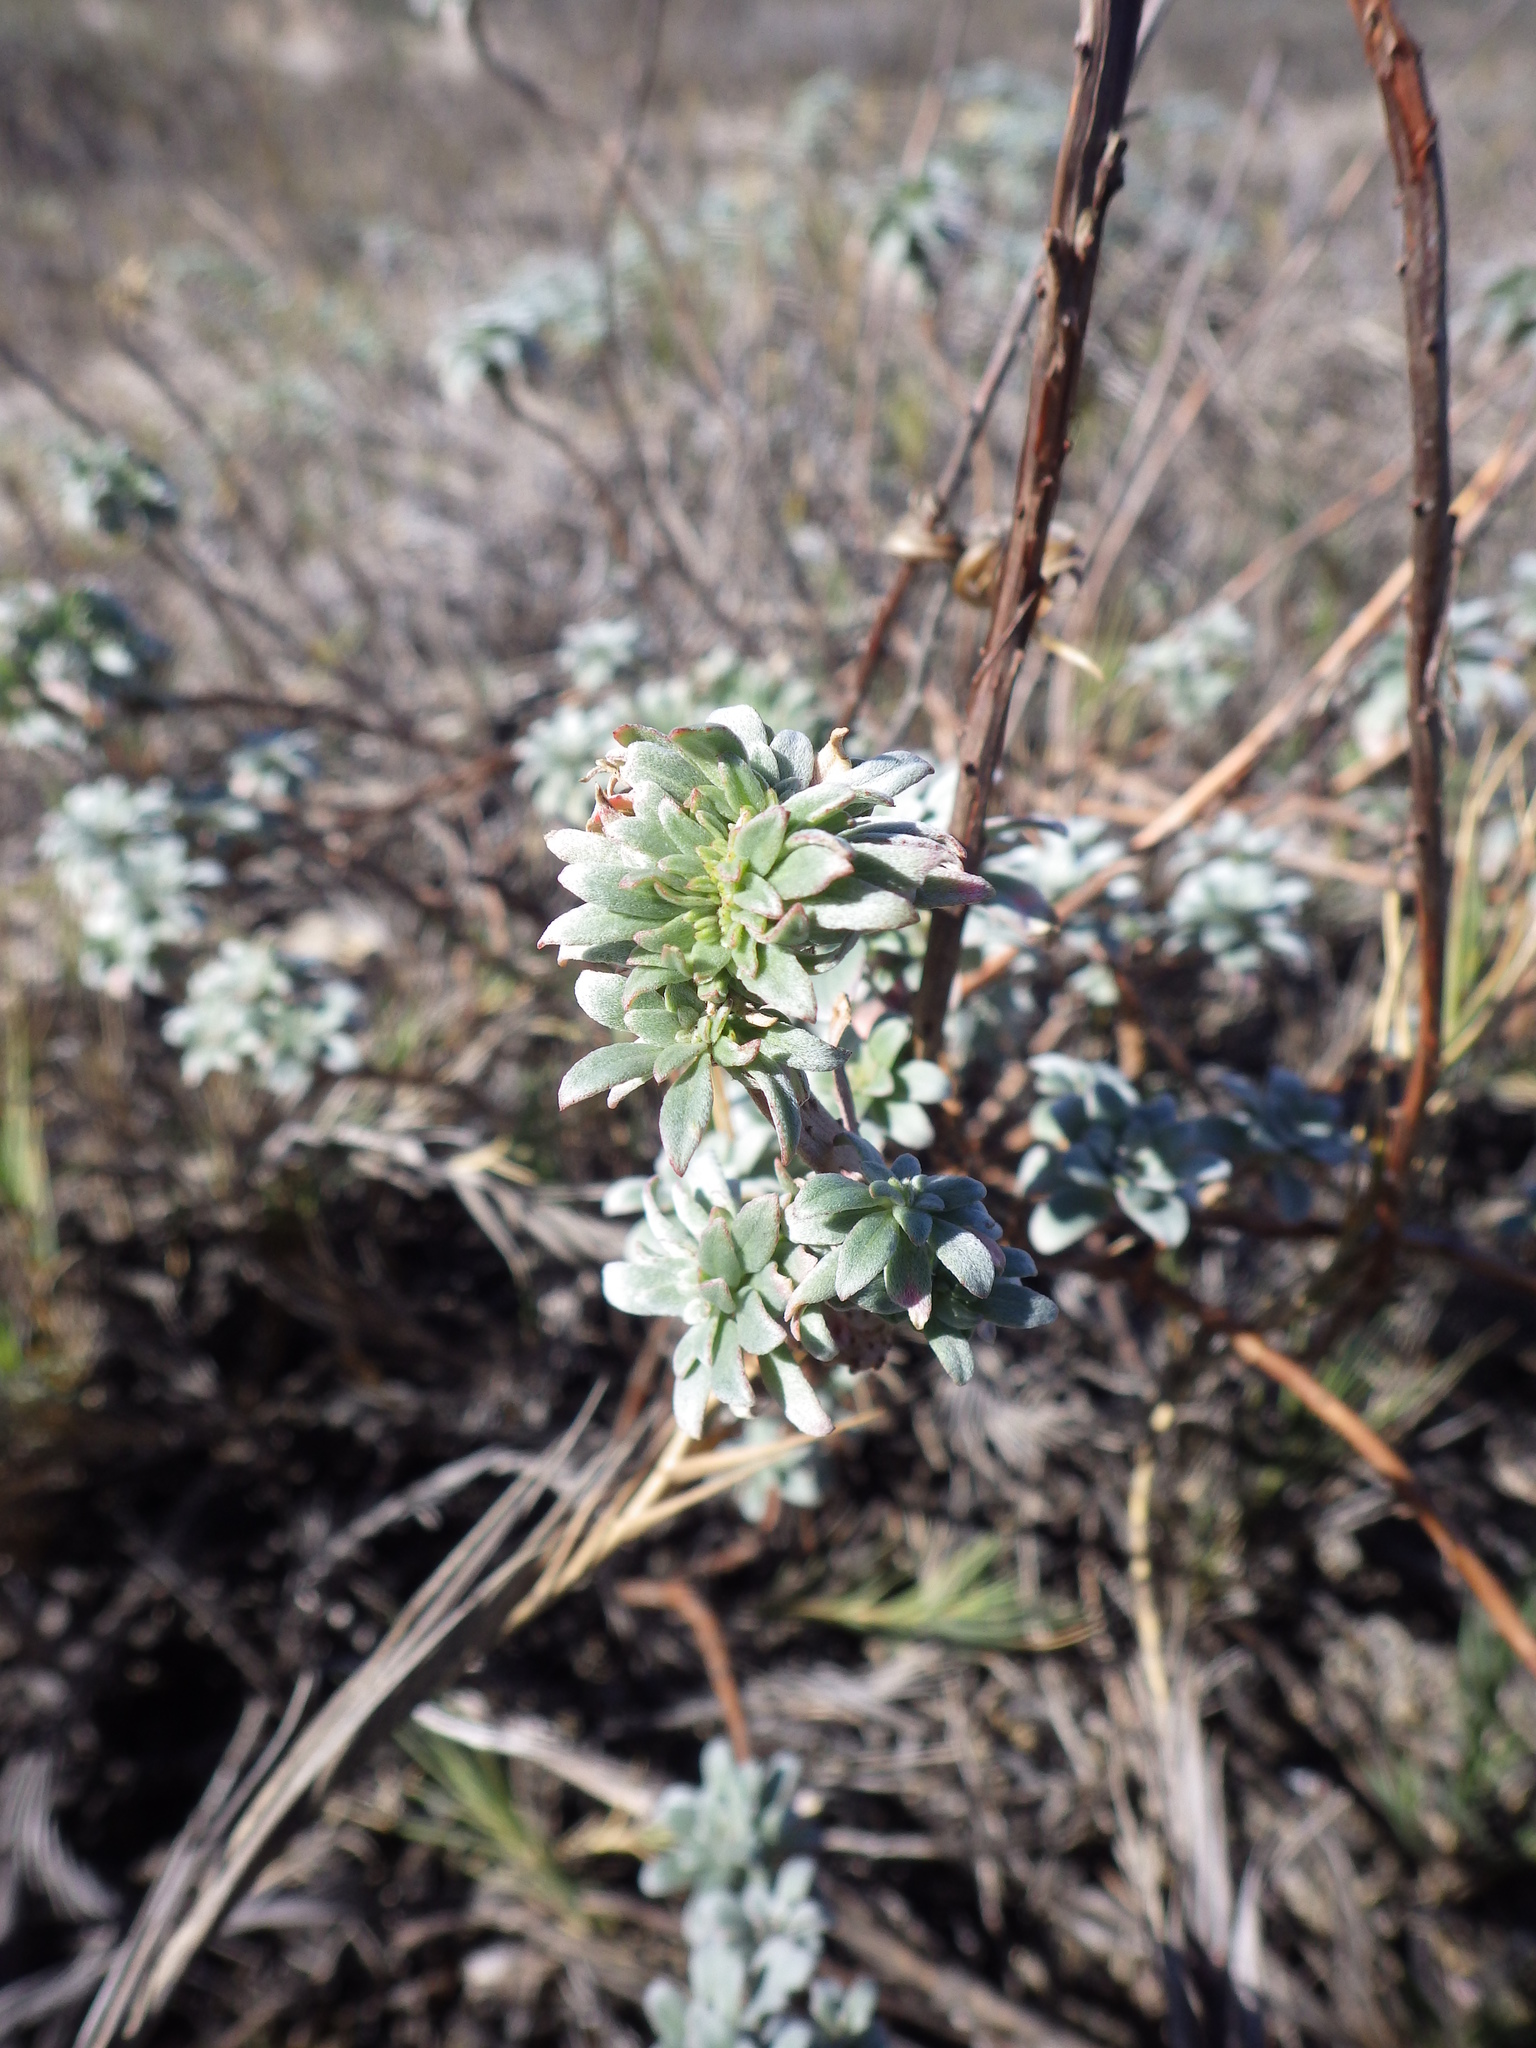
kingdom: Plantae
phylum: Tracheophyta
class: Magnoliopsida
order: Myrtales
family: Onagraceae
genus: Camissoniopsis
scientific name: Camissoniopsis cheiranthifolia
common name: Beach suncup
